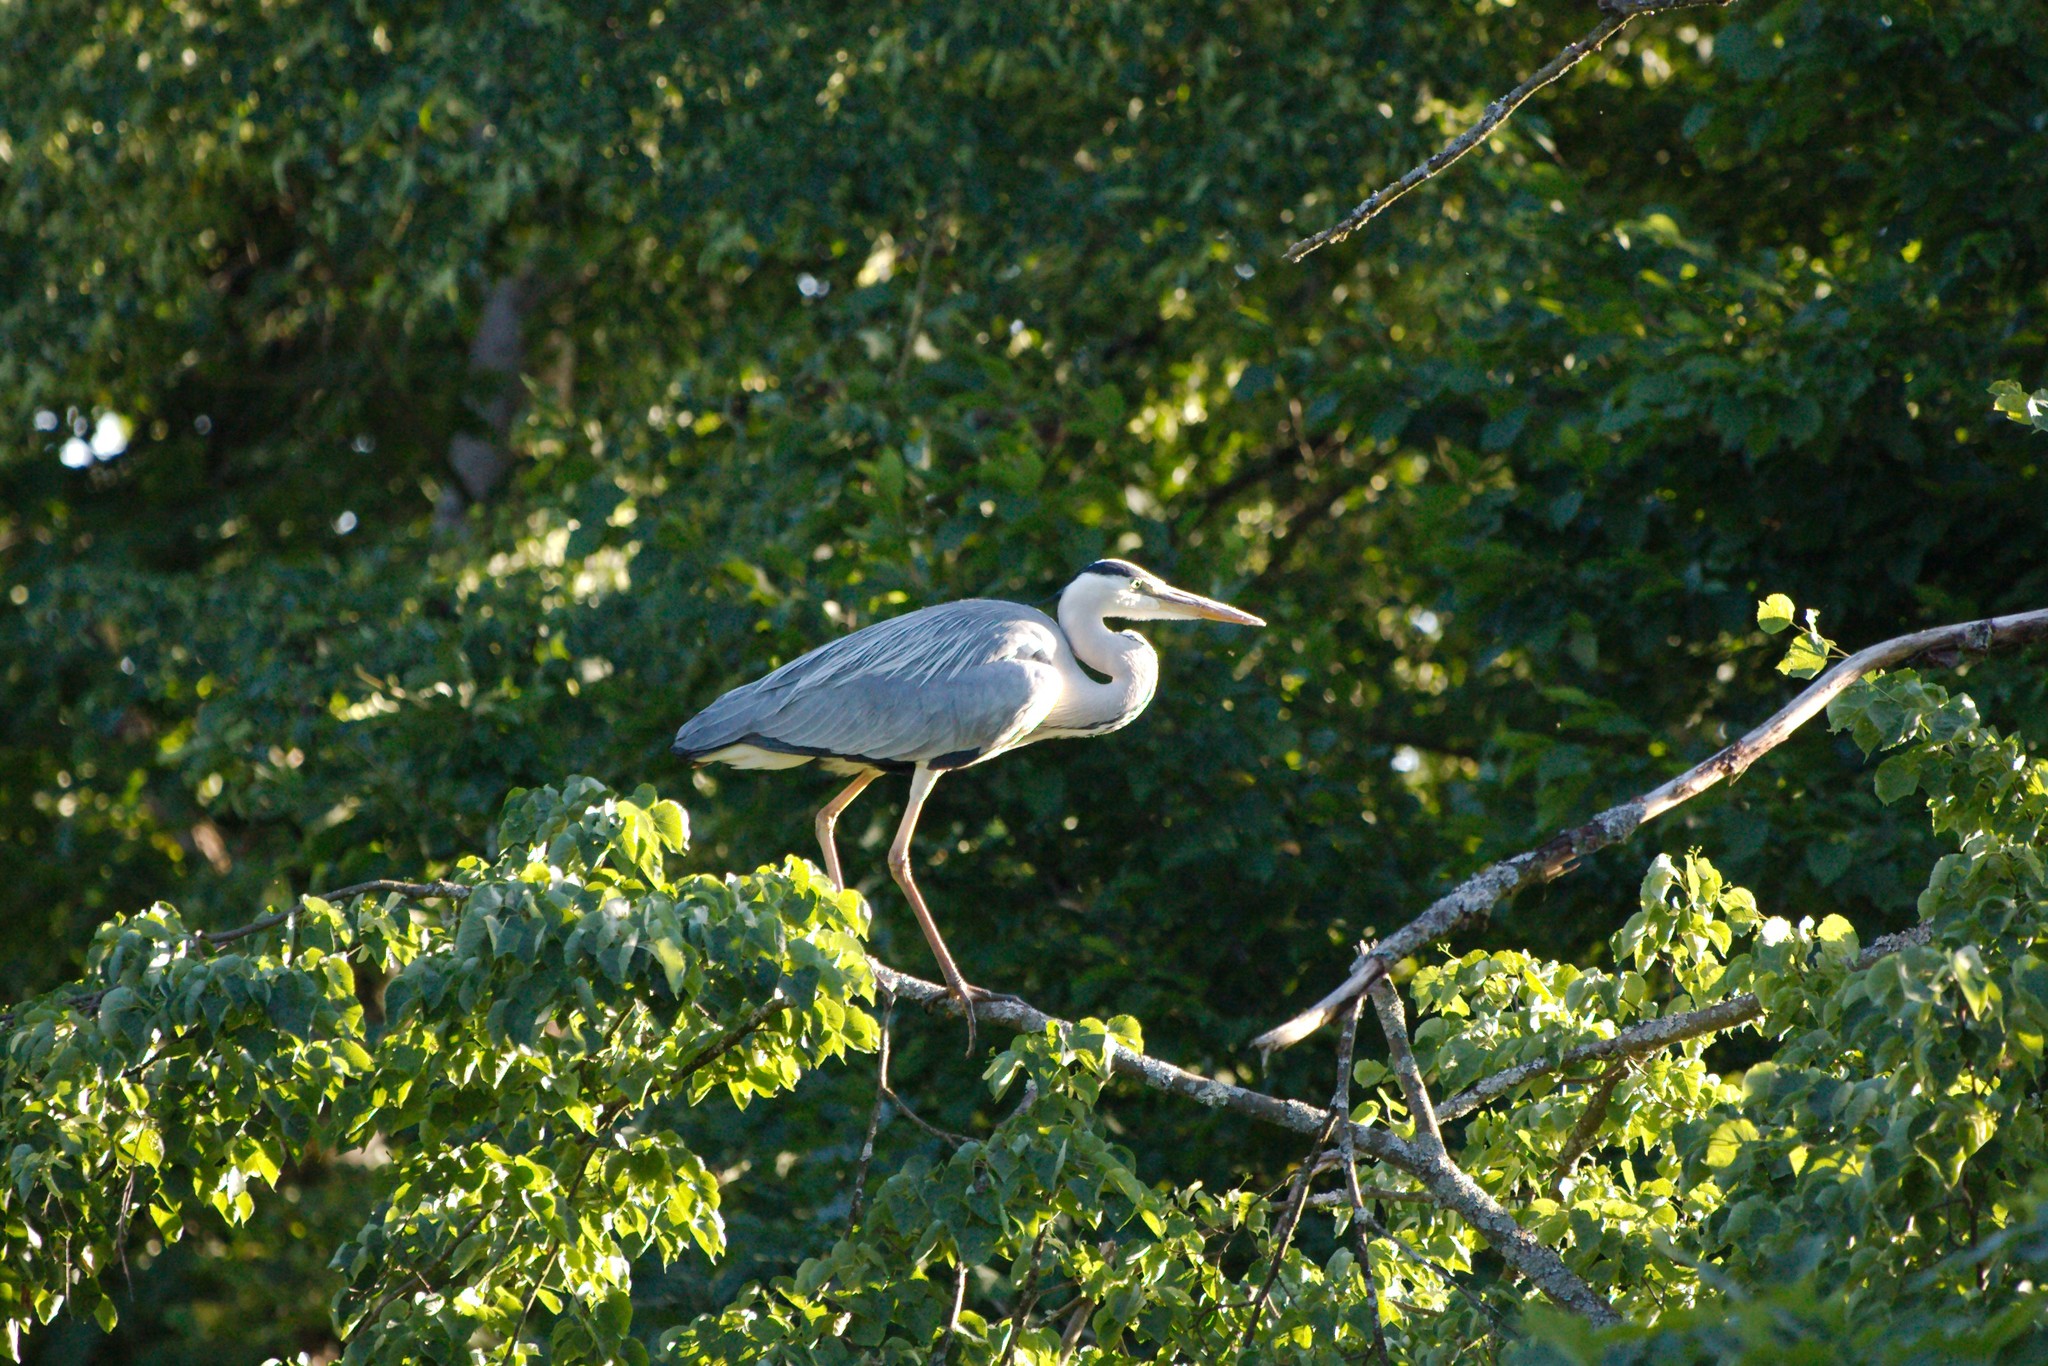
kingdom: Animalia
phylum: Chordata
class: Aves
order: Pelecaniformes
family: Ardeidae
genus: Ardea
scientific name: Ardea cinerea
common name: Grey heron
